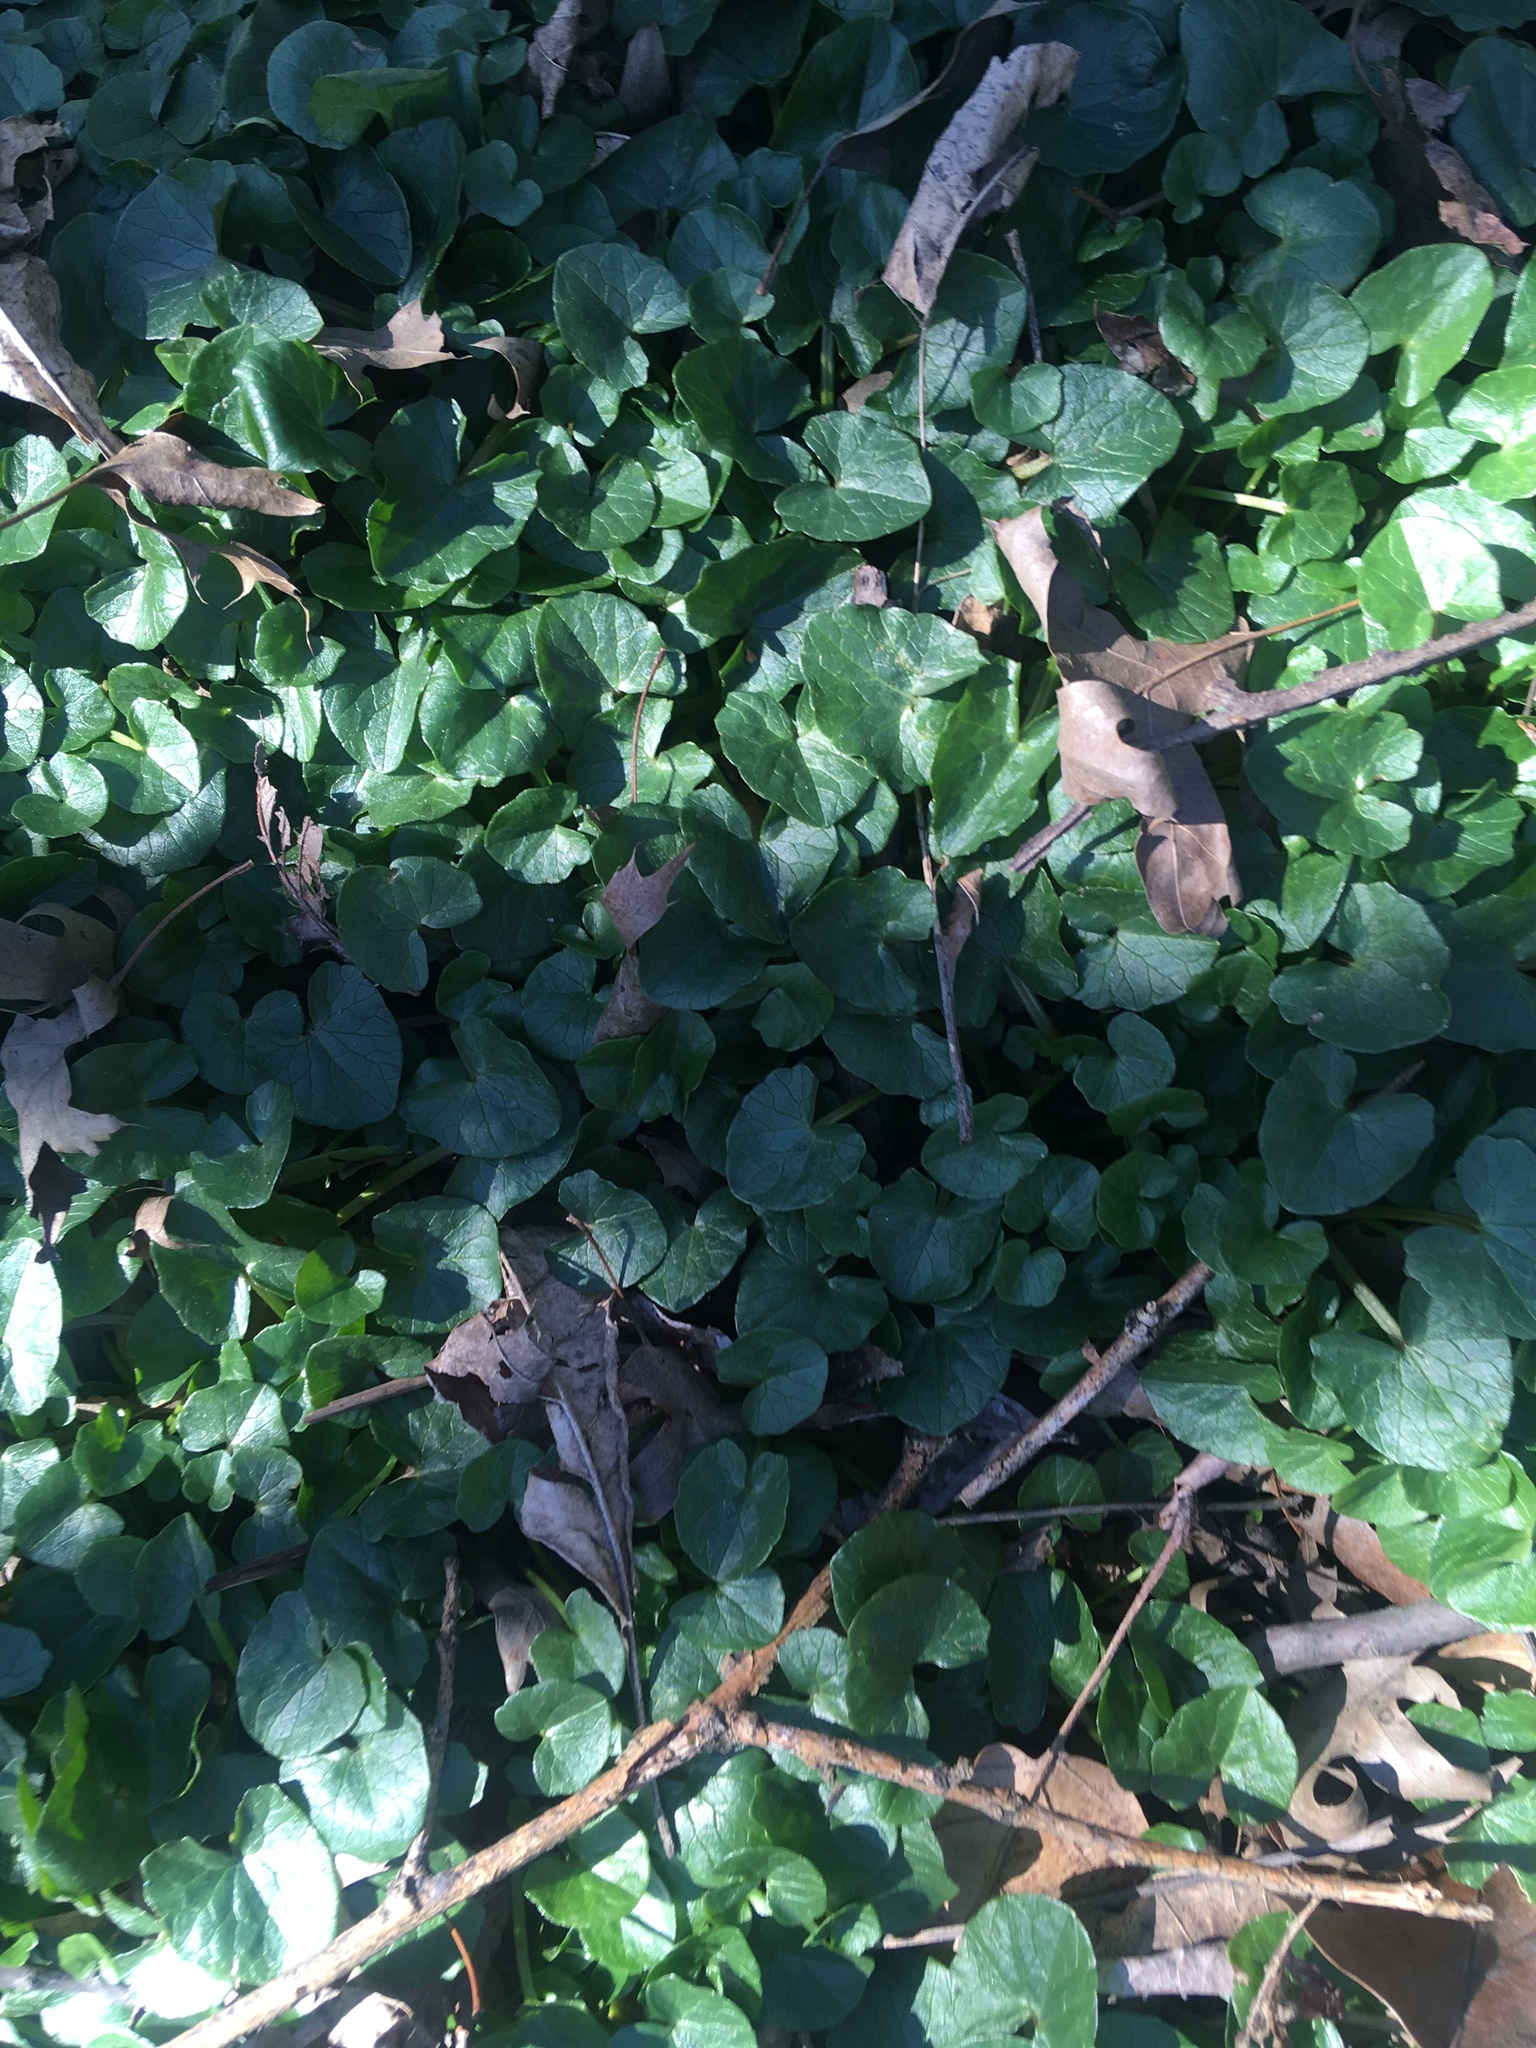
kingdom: Plantae
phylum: Tracheophyta
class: Magnoliopsida
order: Ranunculales
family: Ranunculaceae
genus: Ficaria
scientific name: Ficaria verna
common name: Lesser celandine
